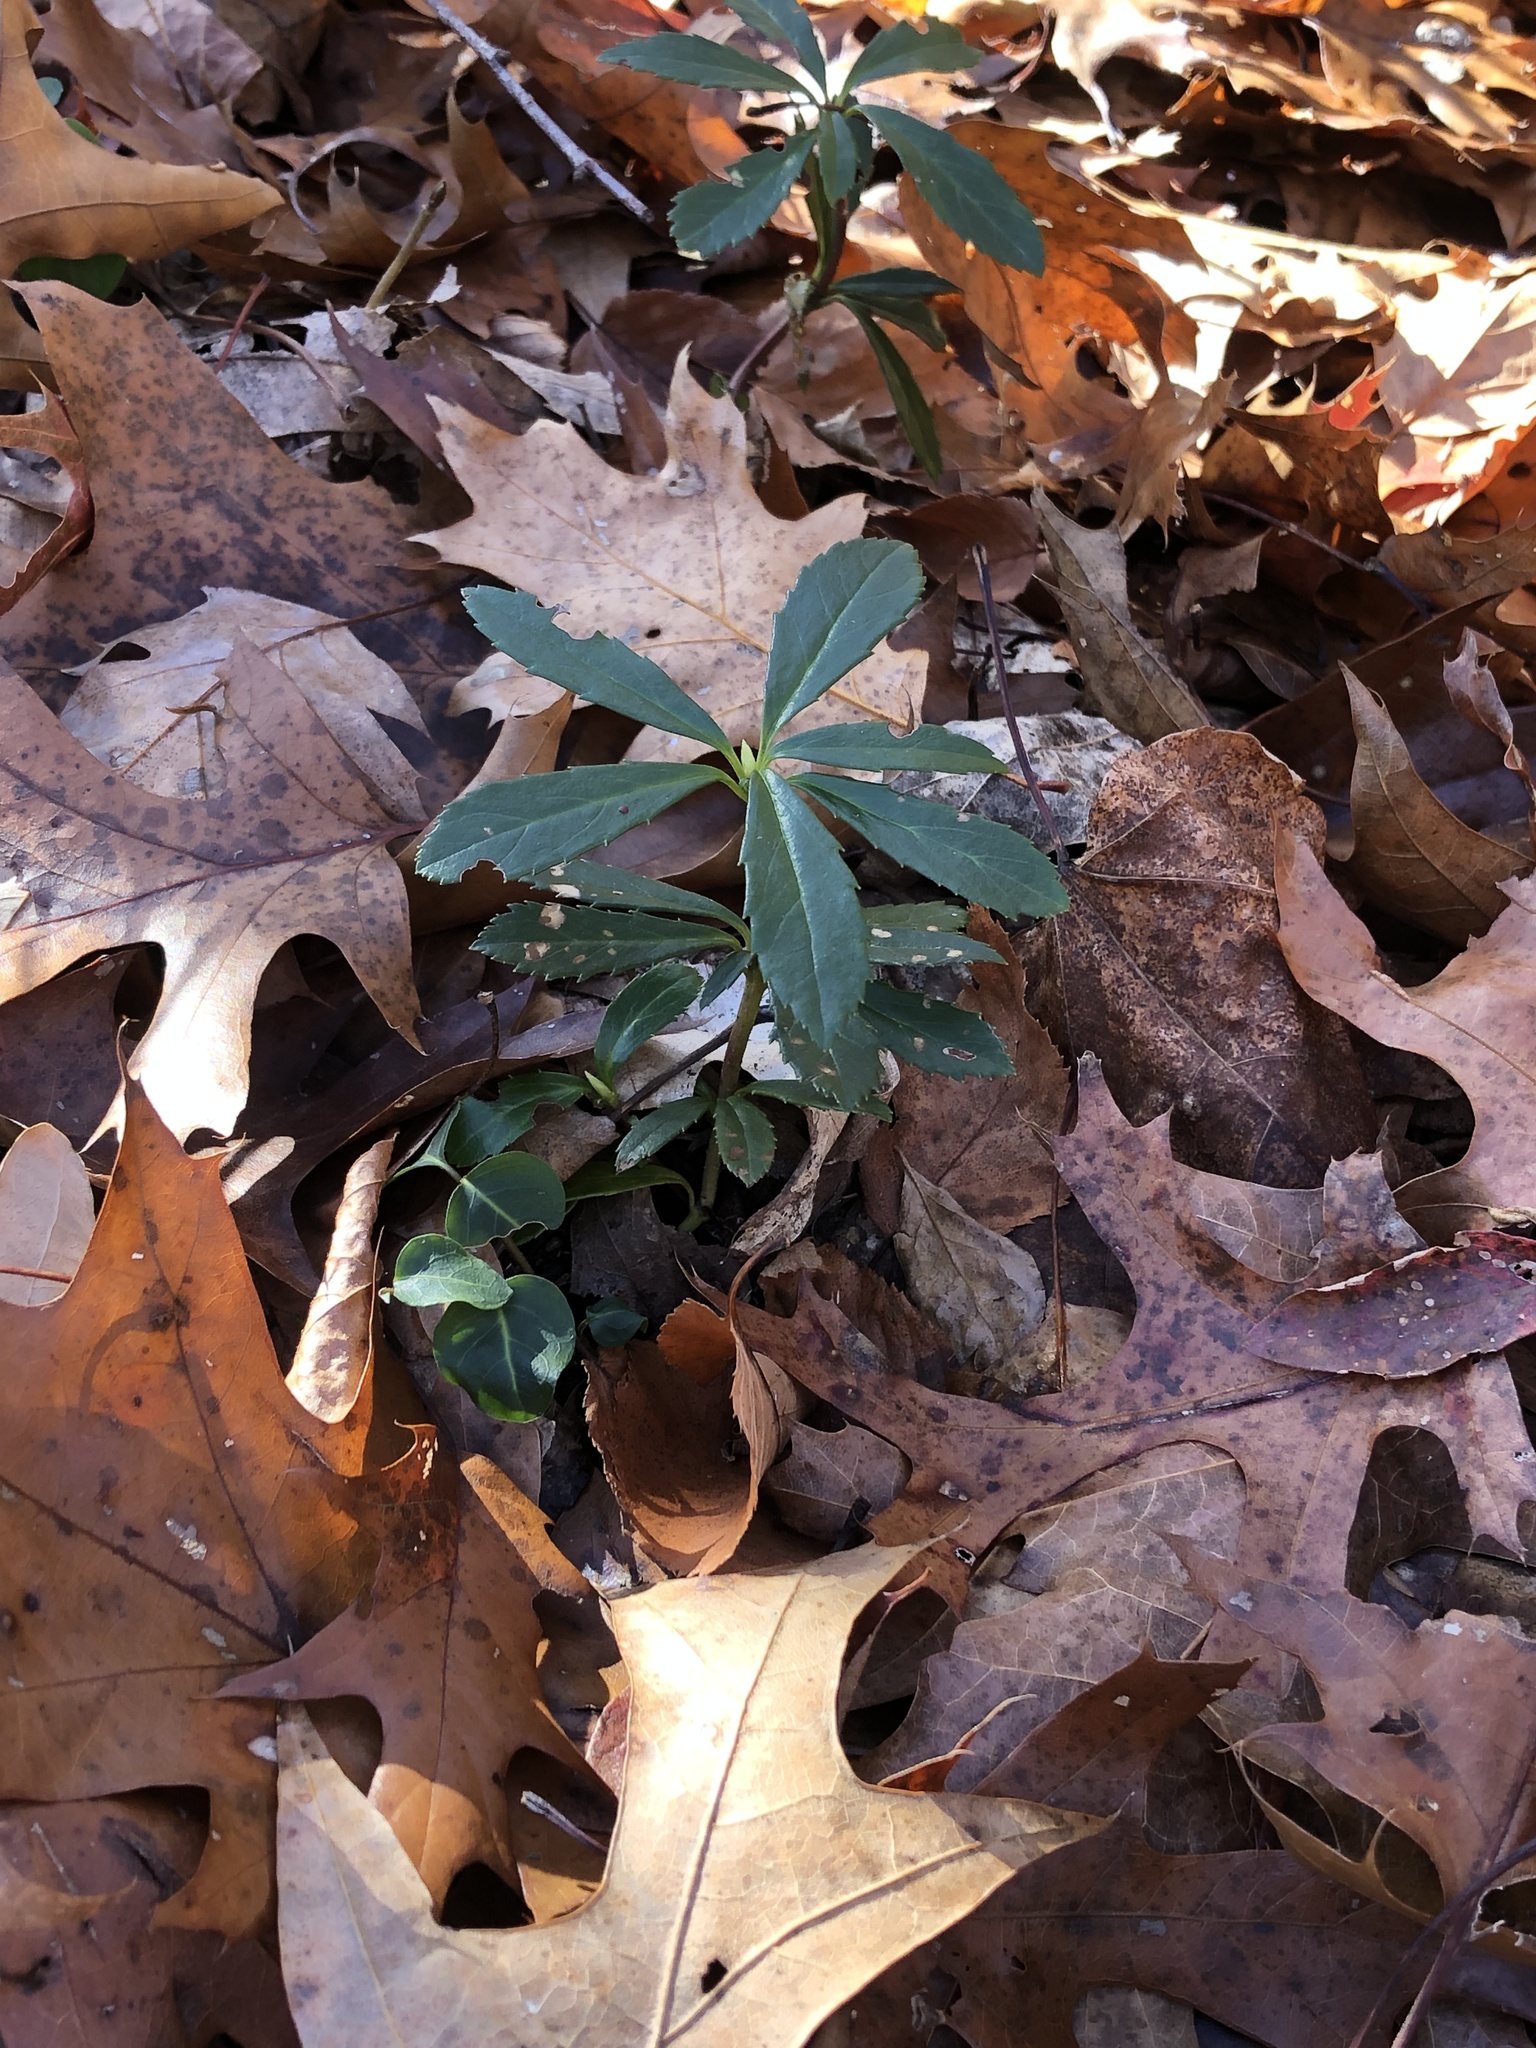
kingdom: Plantae
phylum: Tracheophyta
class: Magnoliopsida
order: Ericales
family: Ericaceae
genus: Chimaphila
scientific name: Chimaphila umbellata
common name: Pipsissewa
